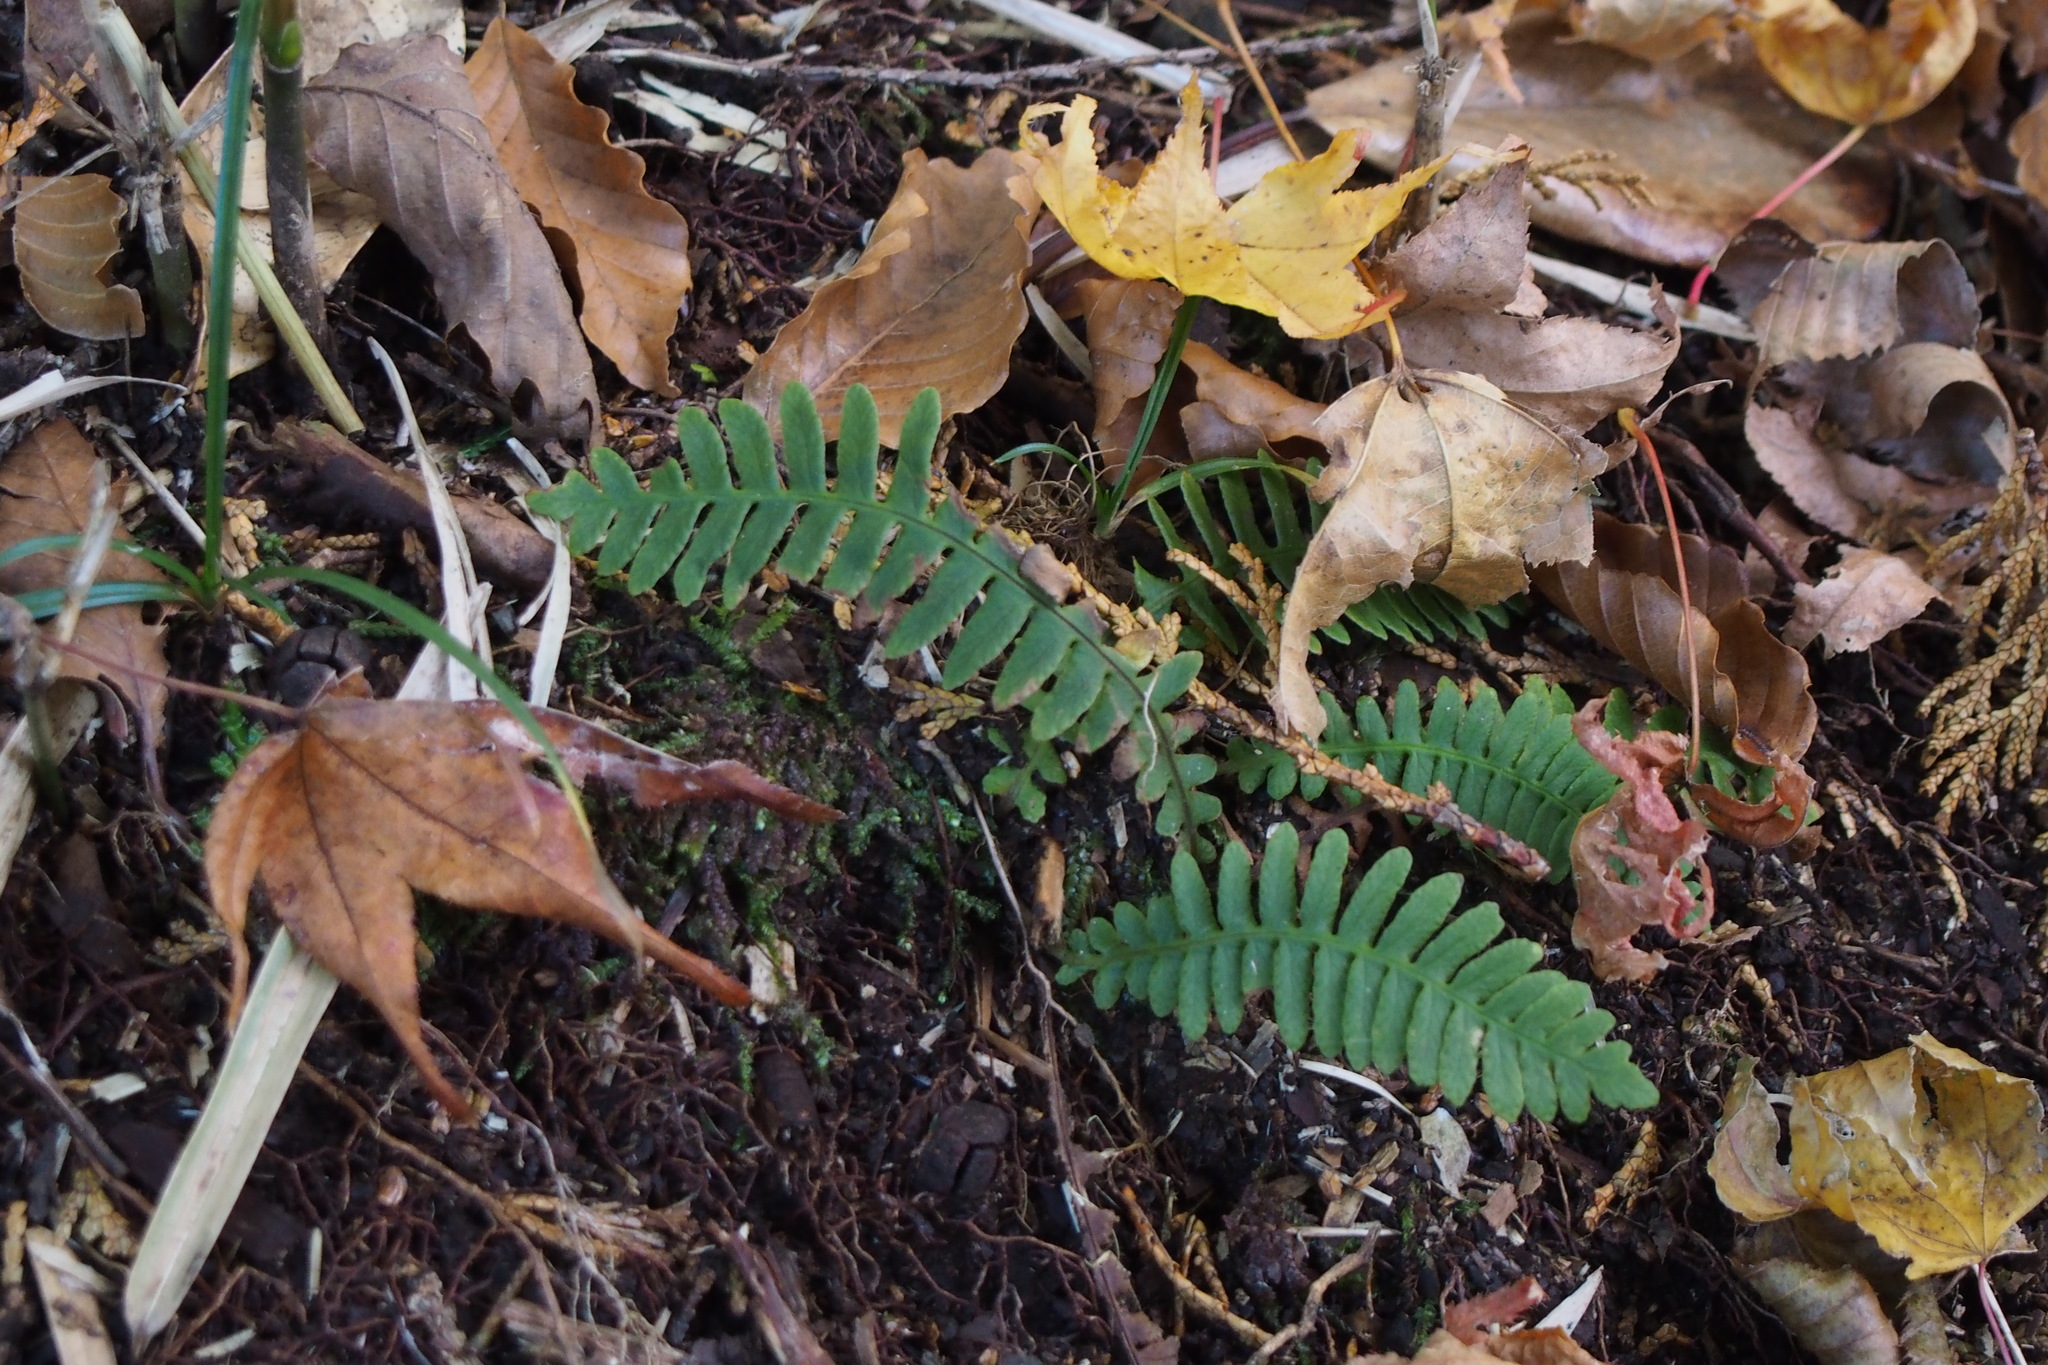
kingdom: Plantae
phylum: Tracheophyta
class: Polypodiopsida
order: Polypodiales
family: Blechnaceae
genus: Spicantopsis
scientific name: Spicantopsis niponica
